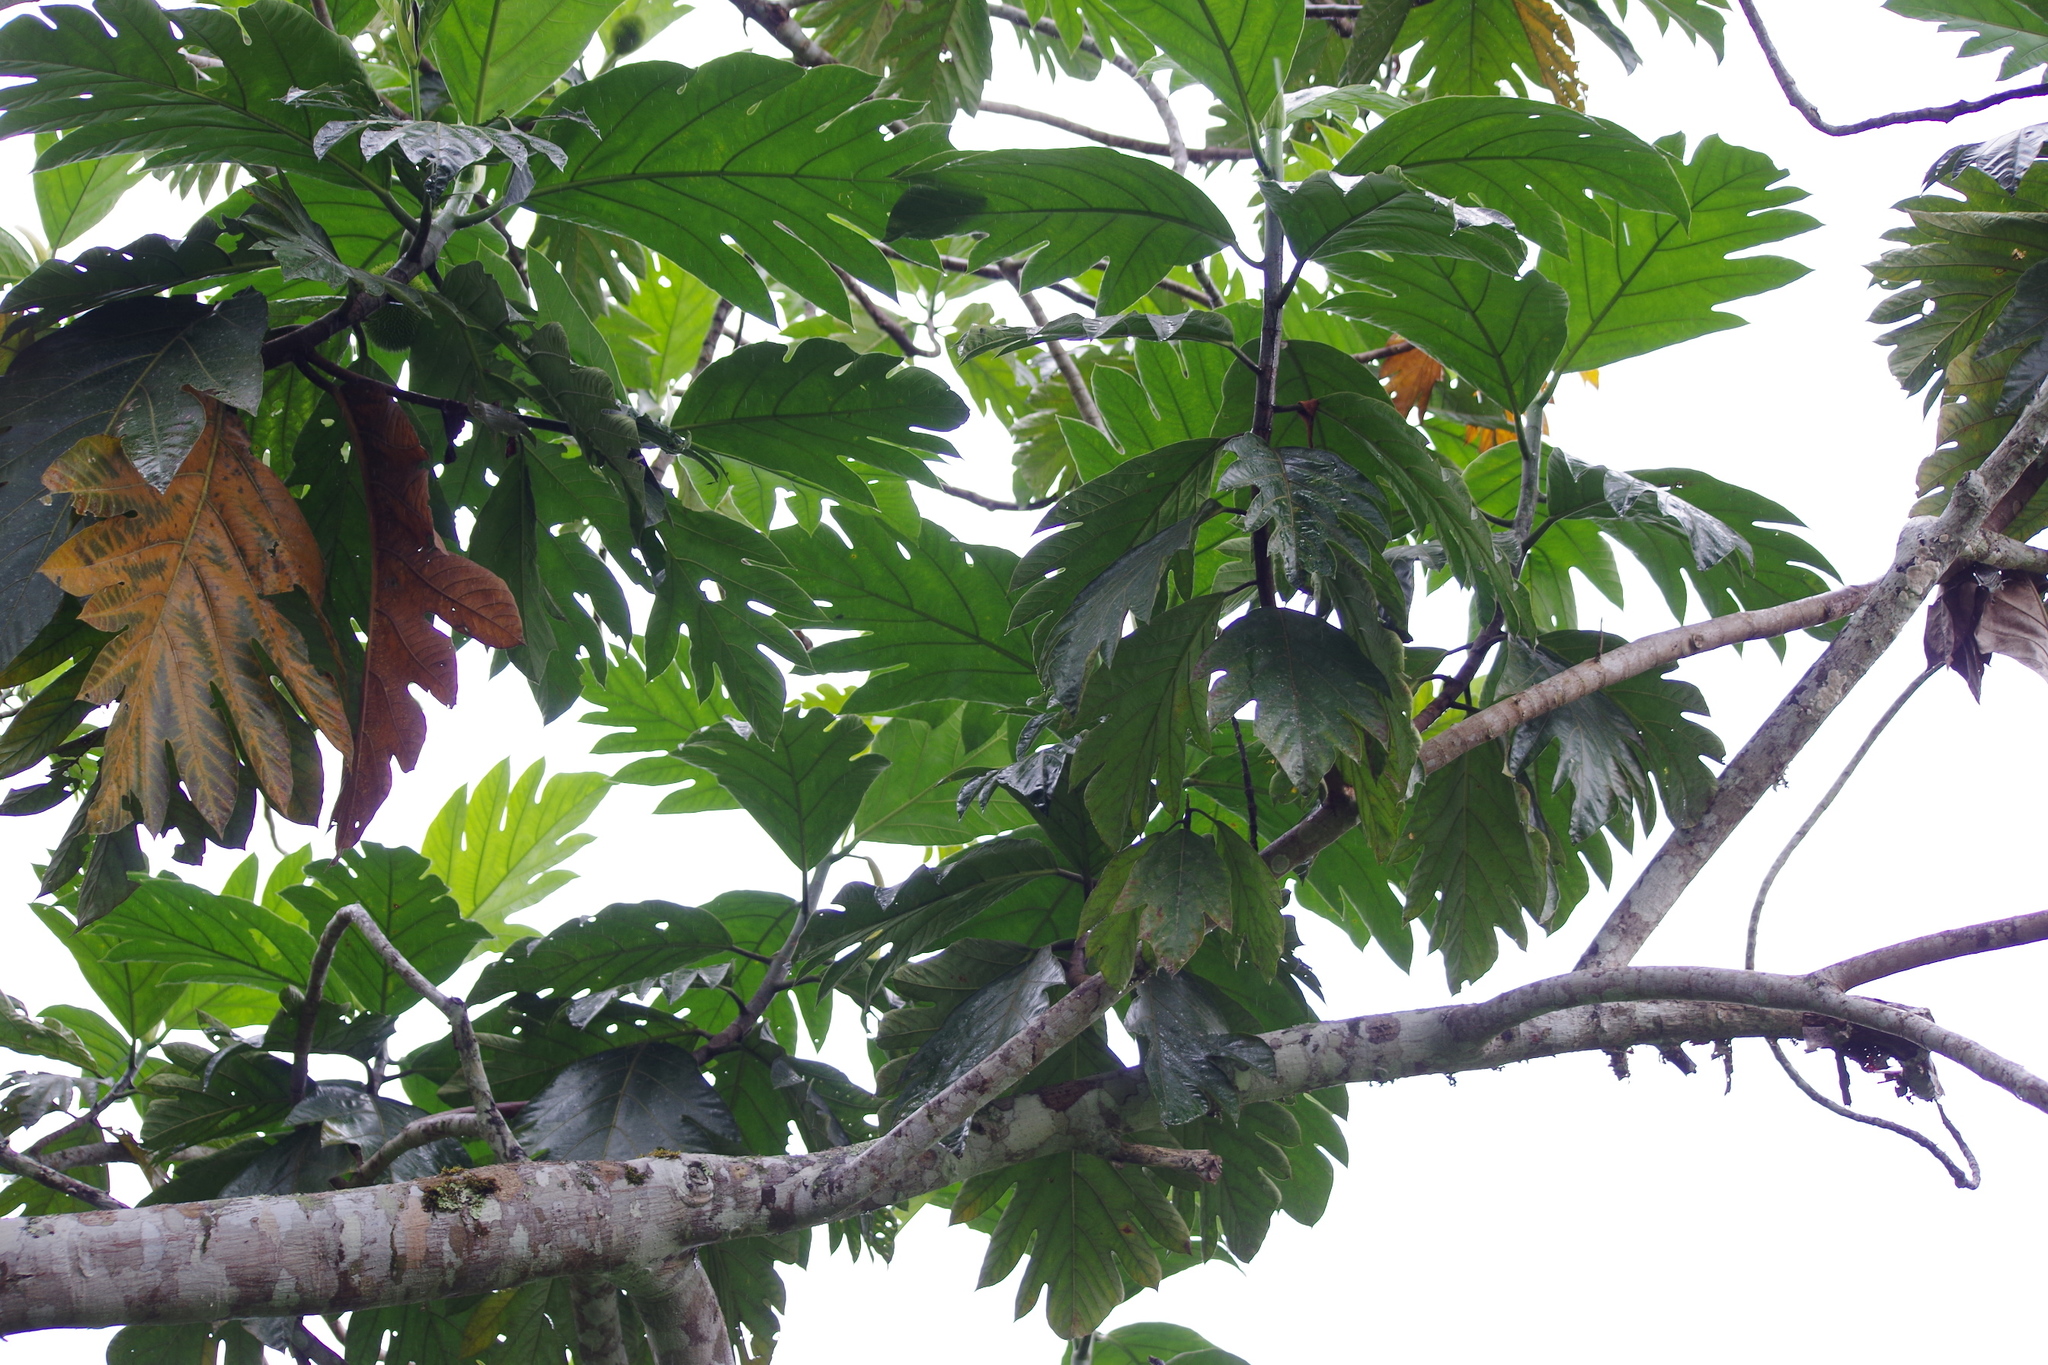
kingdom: Plantae
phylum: Tracheophyta
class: Magnoliopsida
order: Rosales
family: Moraceae
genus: Artocarpus
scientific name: Artocarpus altilis
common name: Breadfruit
